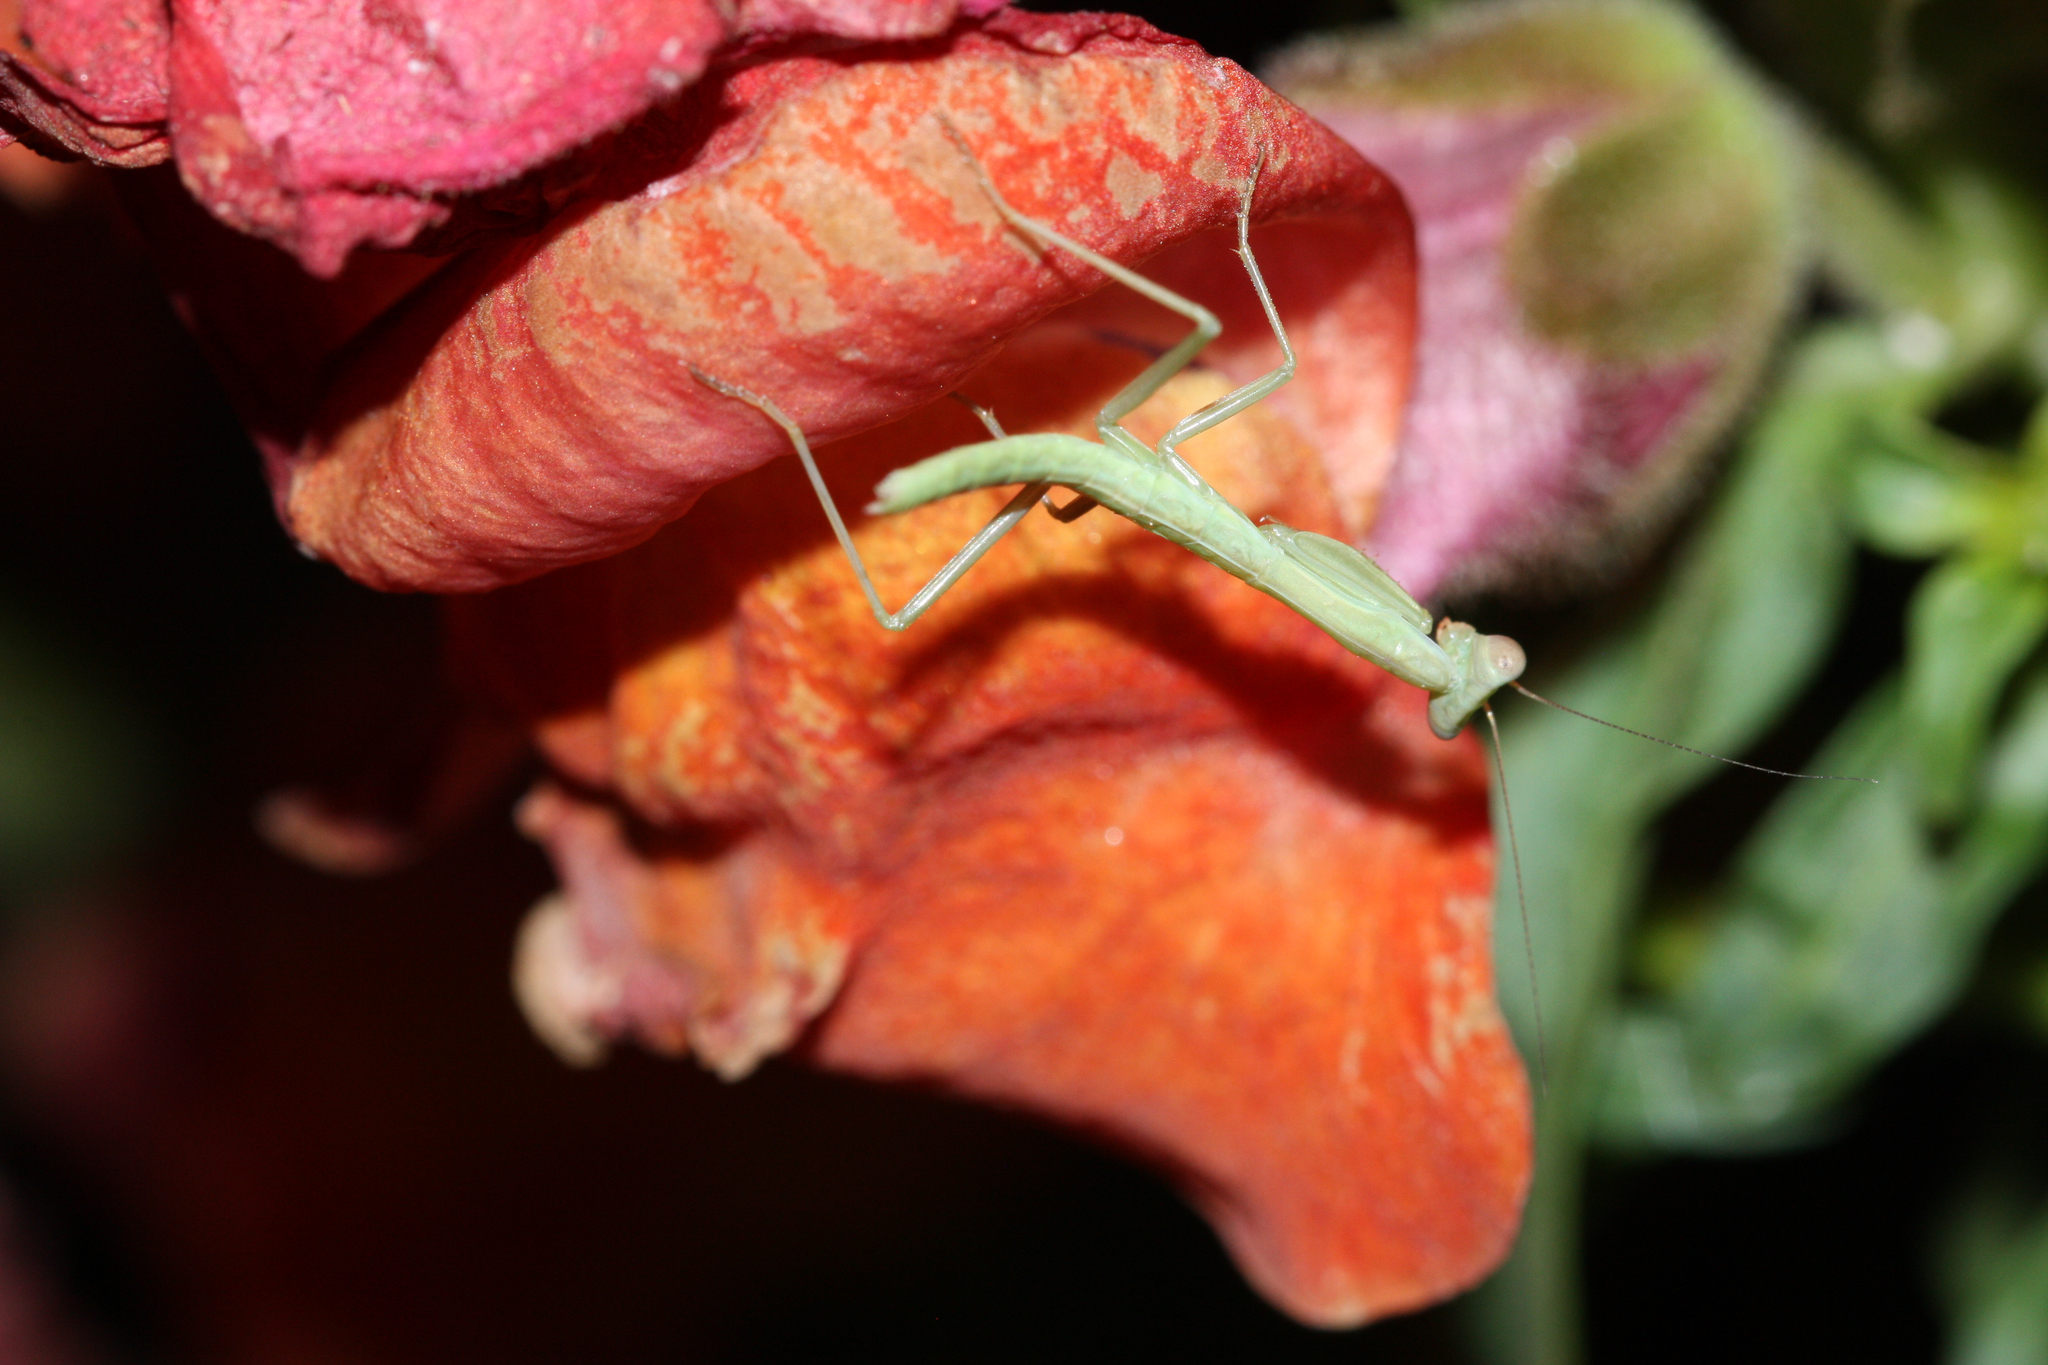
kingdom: Animalia
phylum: Arthropoda
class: Insecta
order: Mantodea
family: Eremiaphilidae
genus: Iris
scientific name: Iris oratoria
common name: Mediterranean mantis
